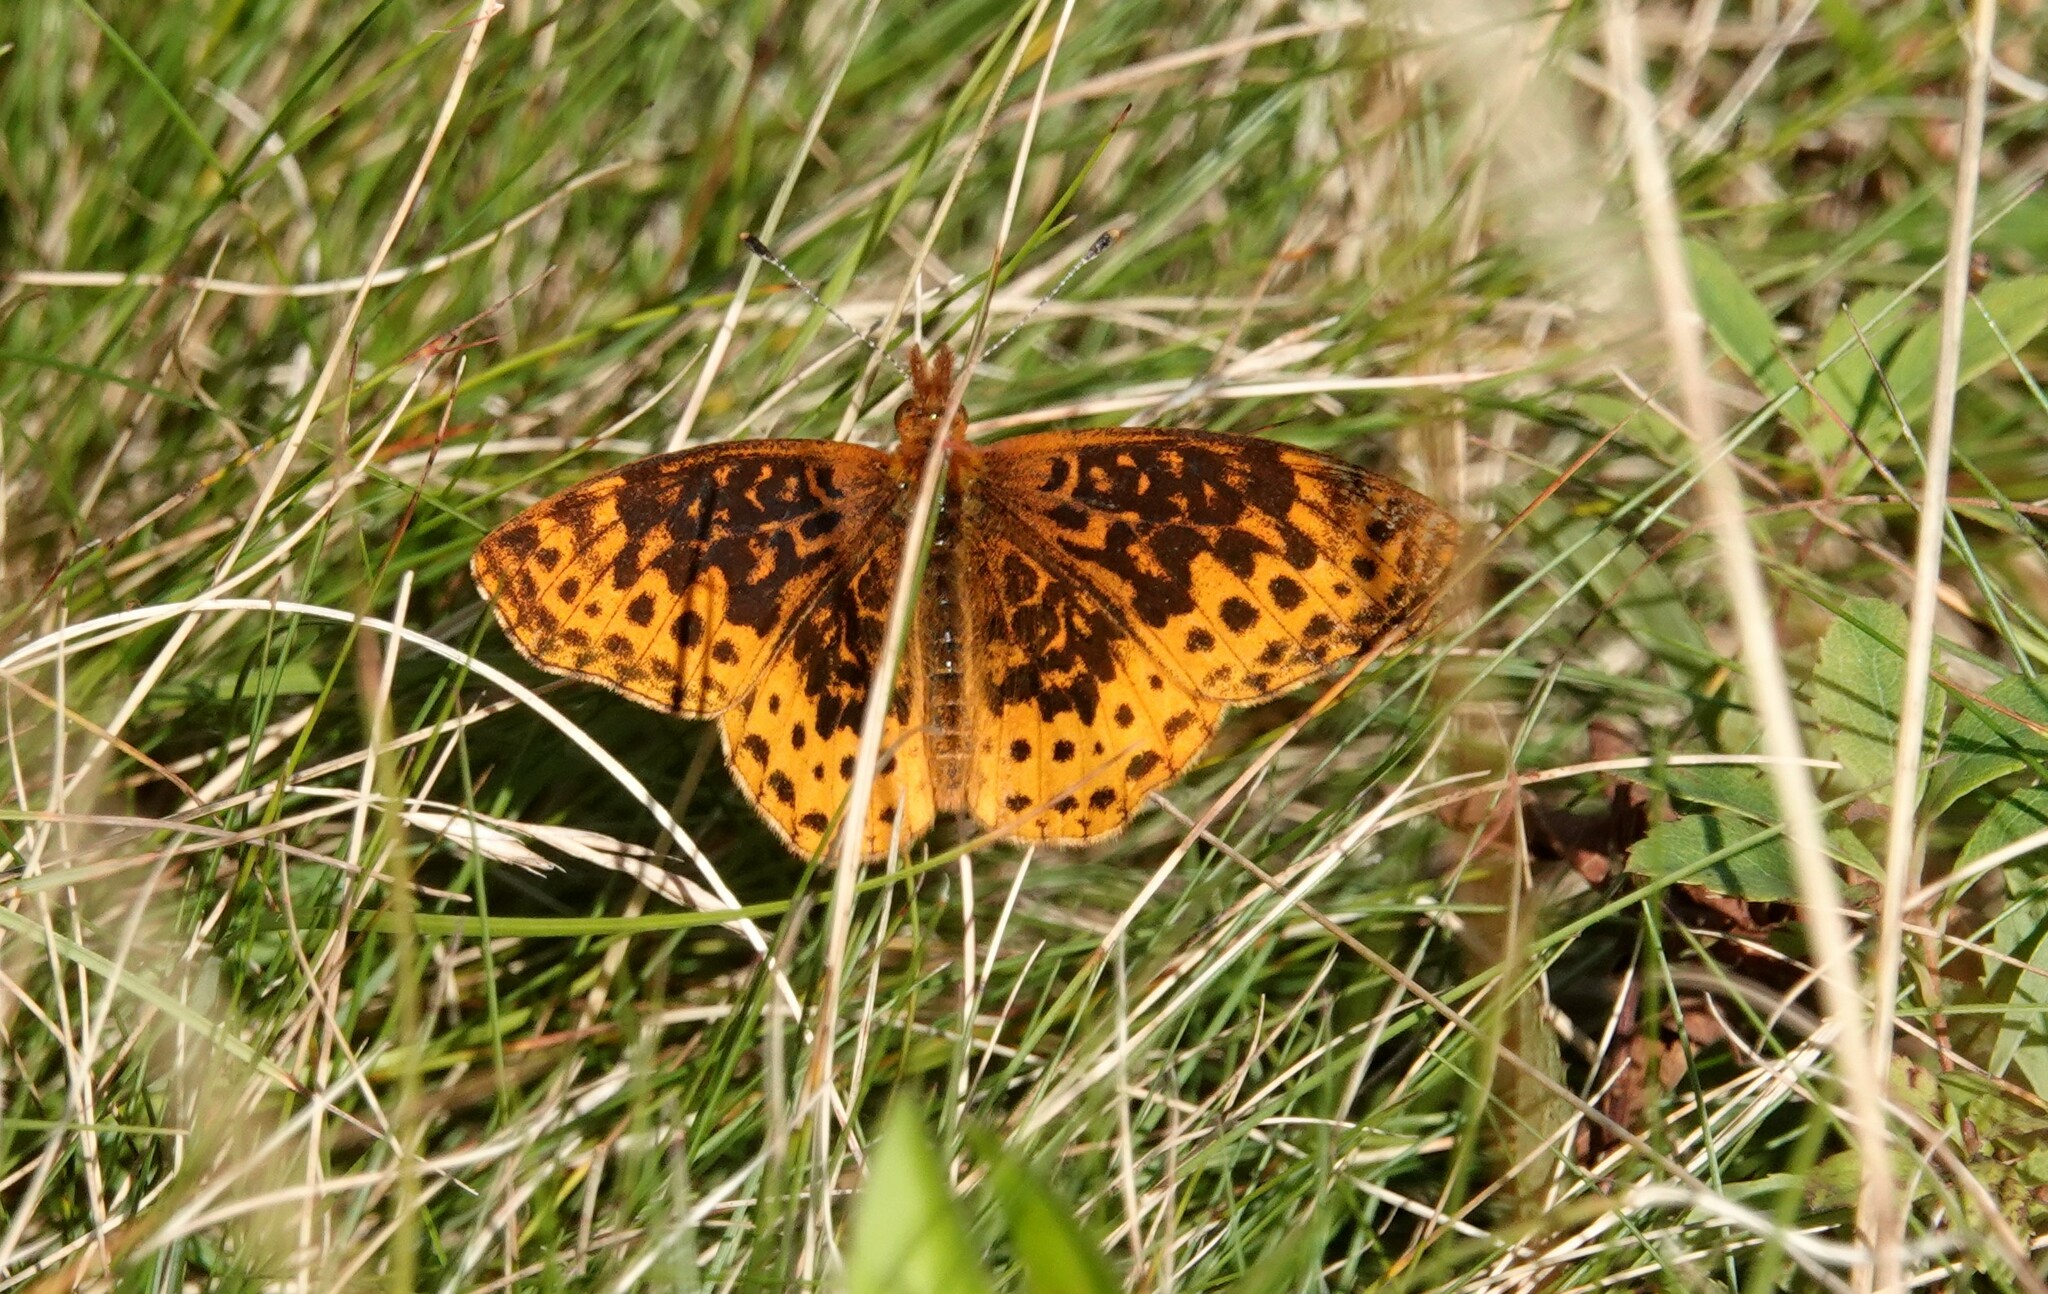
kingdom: Animalia
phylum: Arthropoda
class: Insecta
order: Lepidoptera
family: Nymphalidae
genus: Clossiana
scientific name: Clossiana toddi
